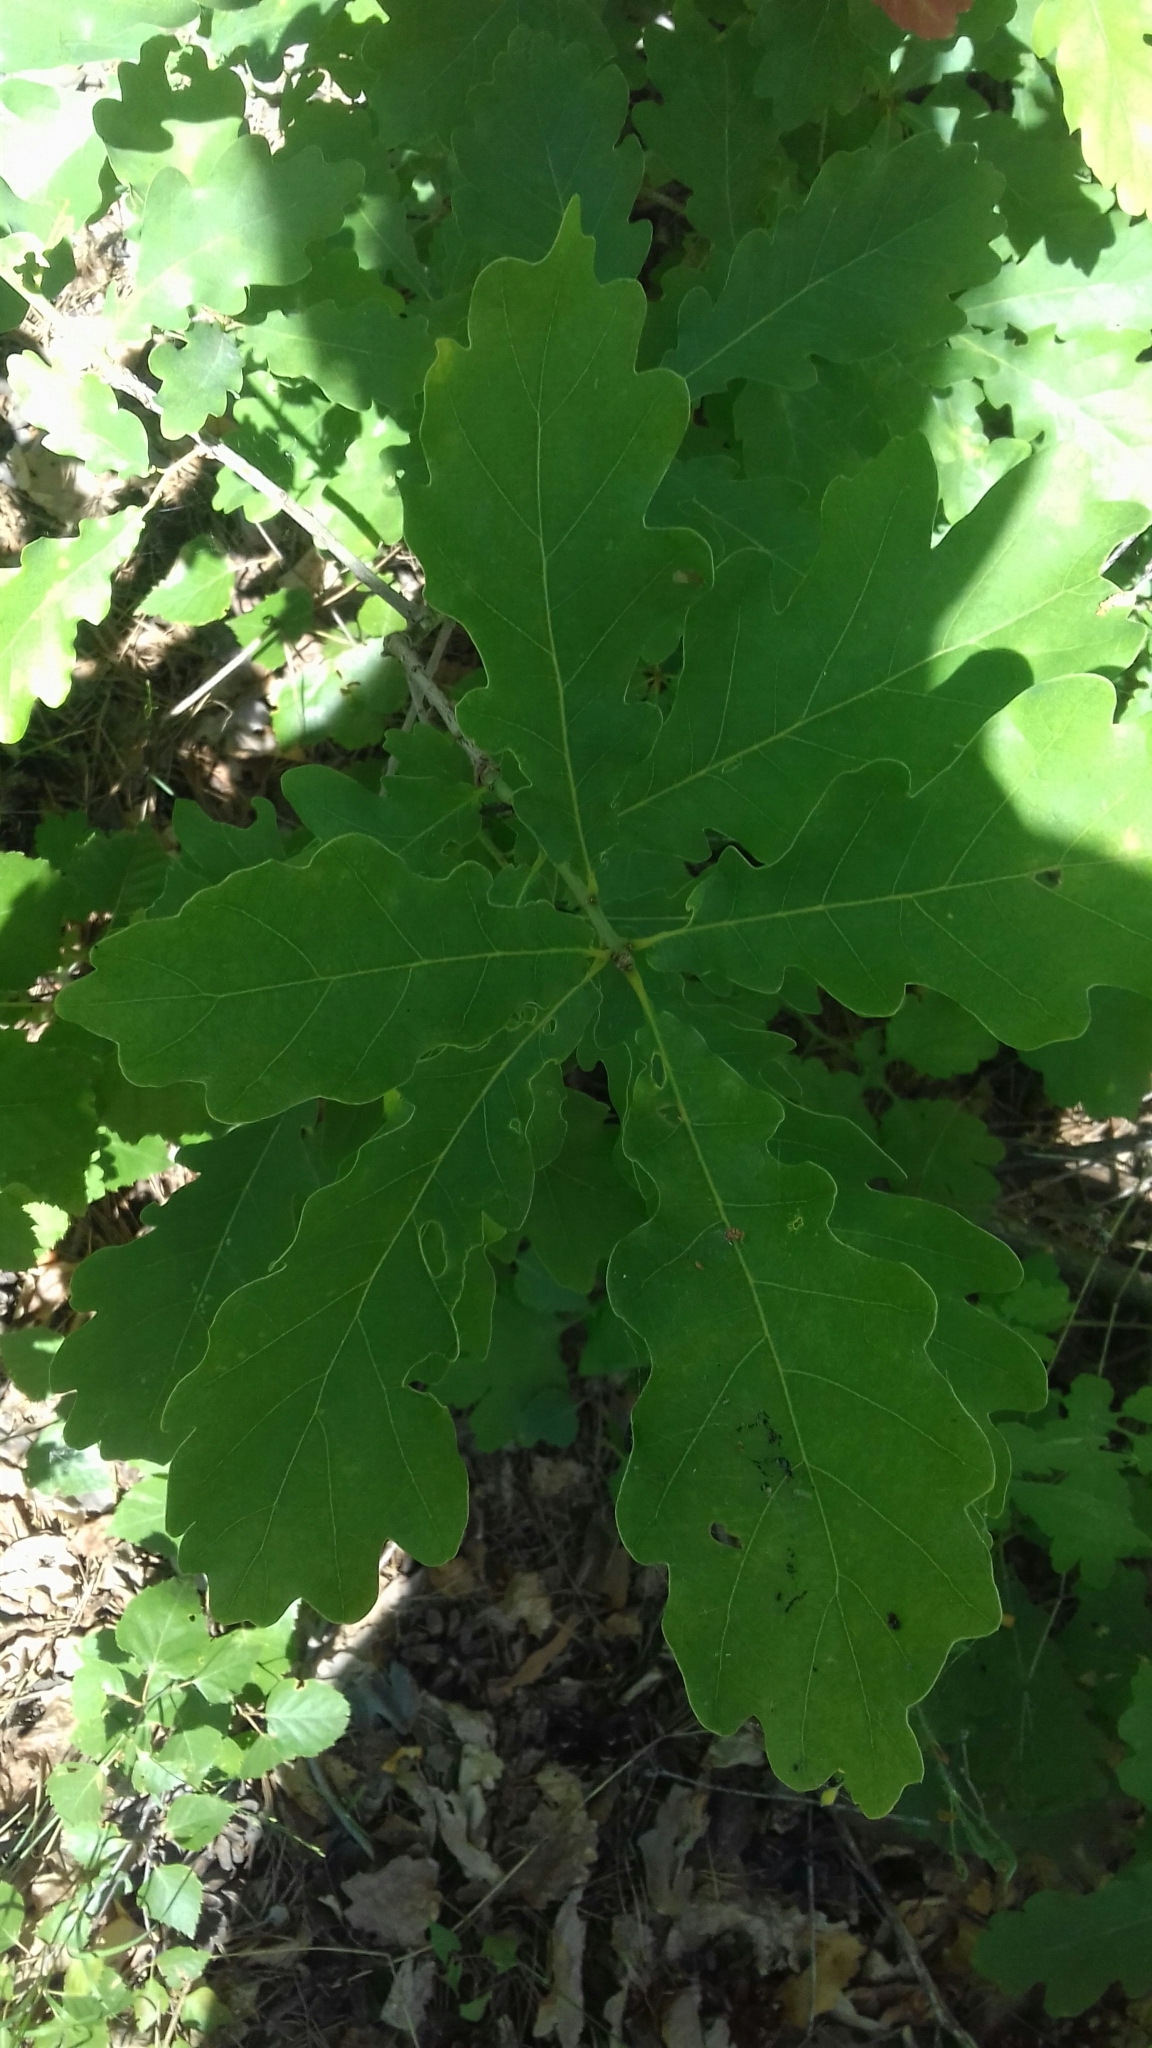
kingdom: Plantae
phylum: Tracheophyta
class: Magnoliopsida
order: Fagales
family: Fagaceae
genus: Quercus
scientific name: Quercus robur
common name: Pedunculate oak
